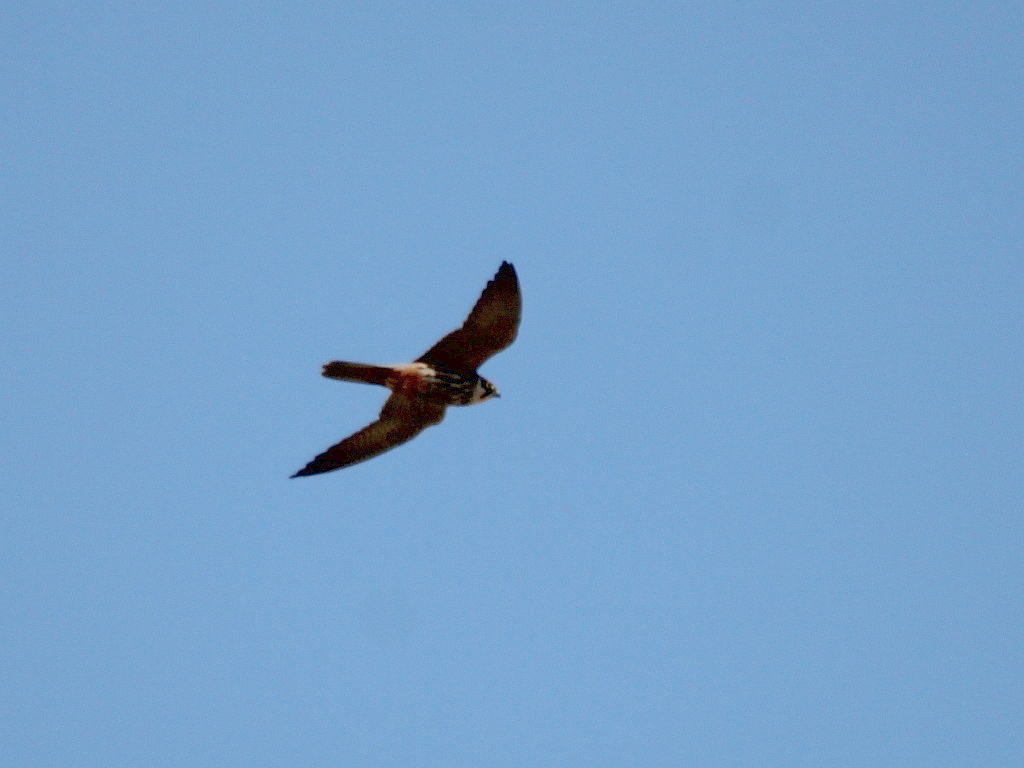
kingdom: Animalia
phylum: Chordata
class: Aves
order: Falconiformes
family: Falconidae
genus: Falco
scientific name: Falco subbuteo
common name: Eurasian hobby
